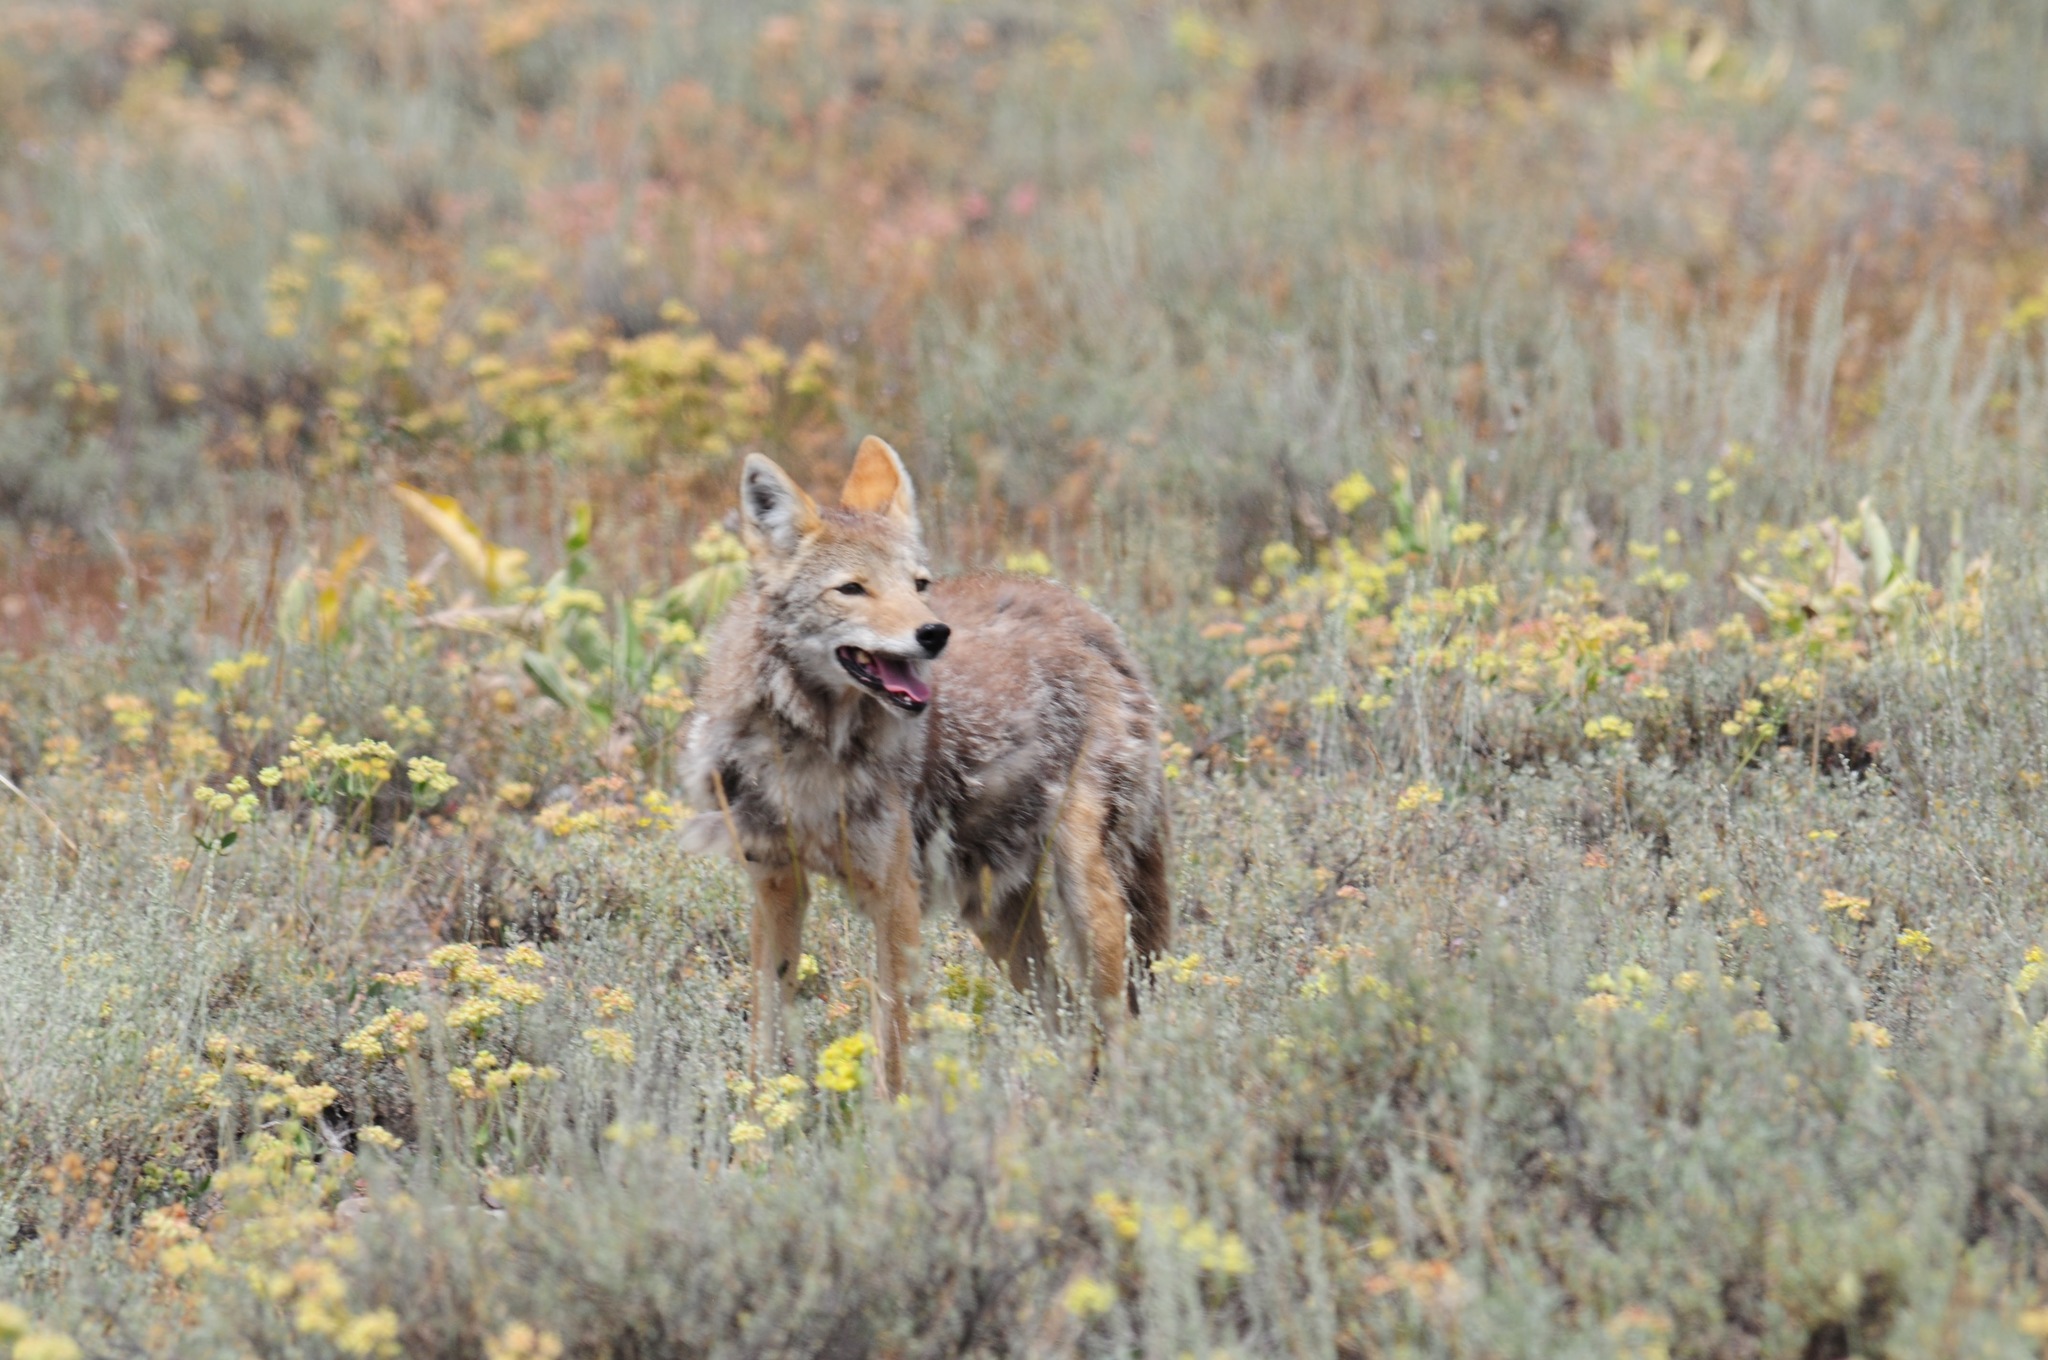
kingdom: Animalia
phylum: Chordata
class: Mammalia
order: Carnivora
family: Canidae
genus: Canis
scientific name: Canis latrans
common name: Coyote
